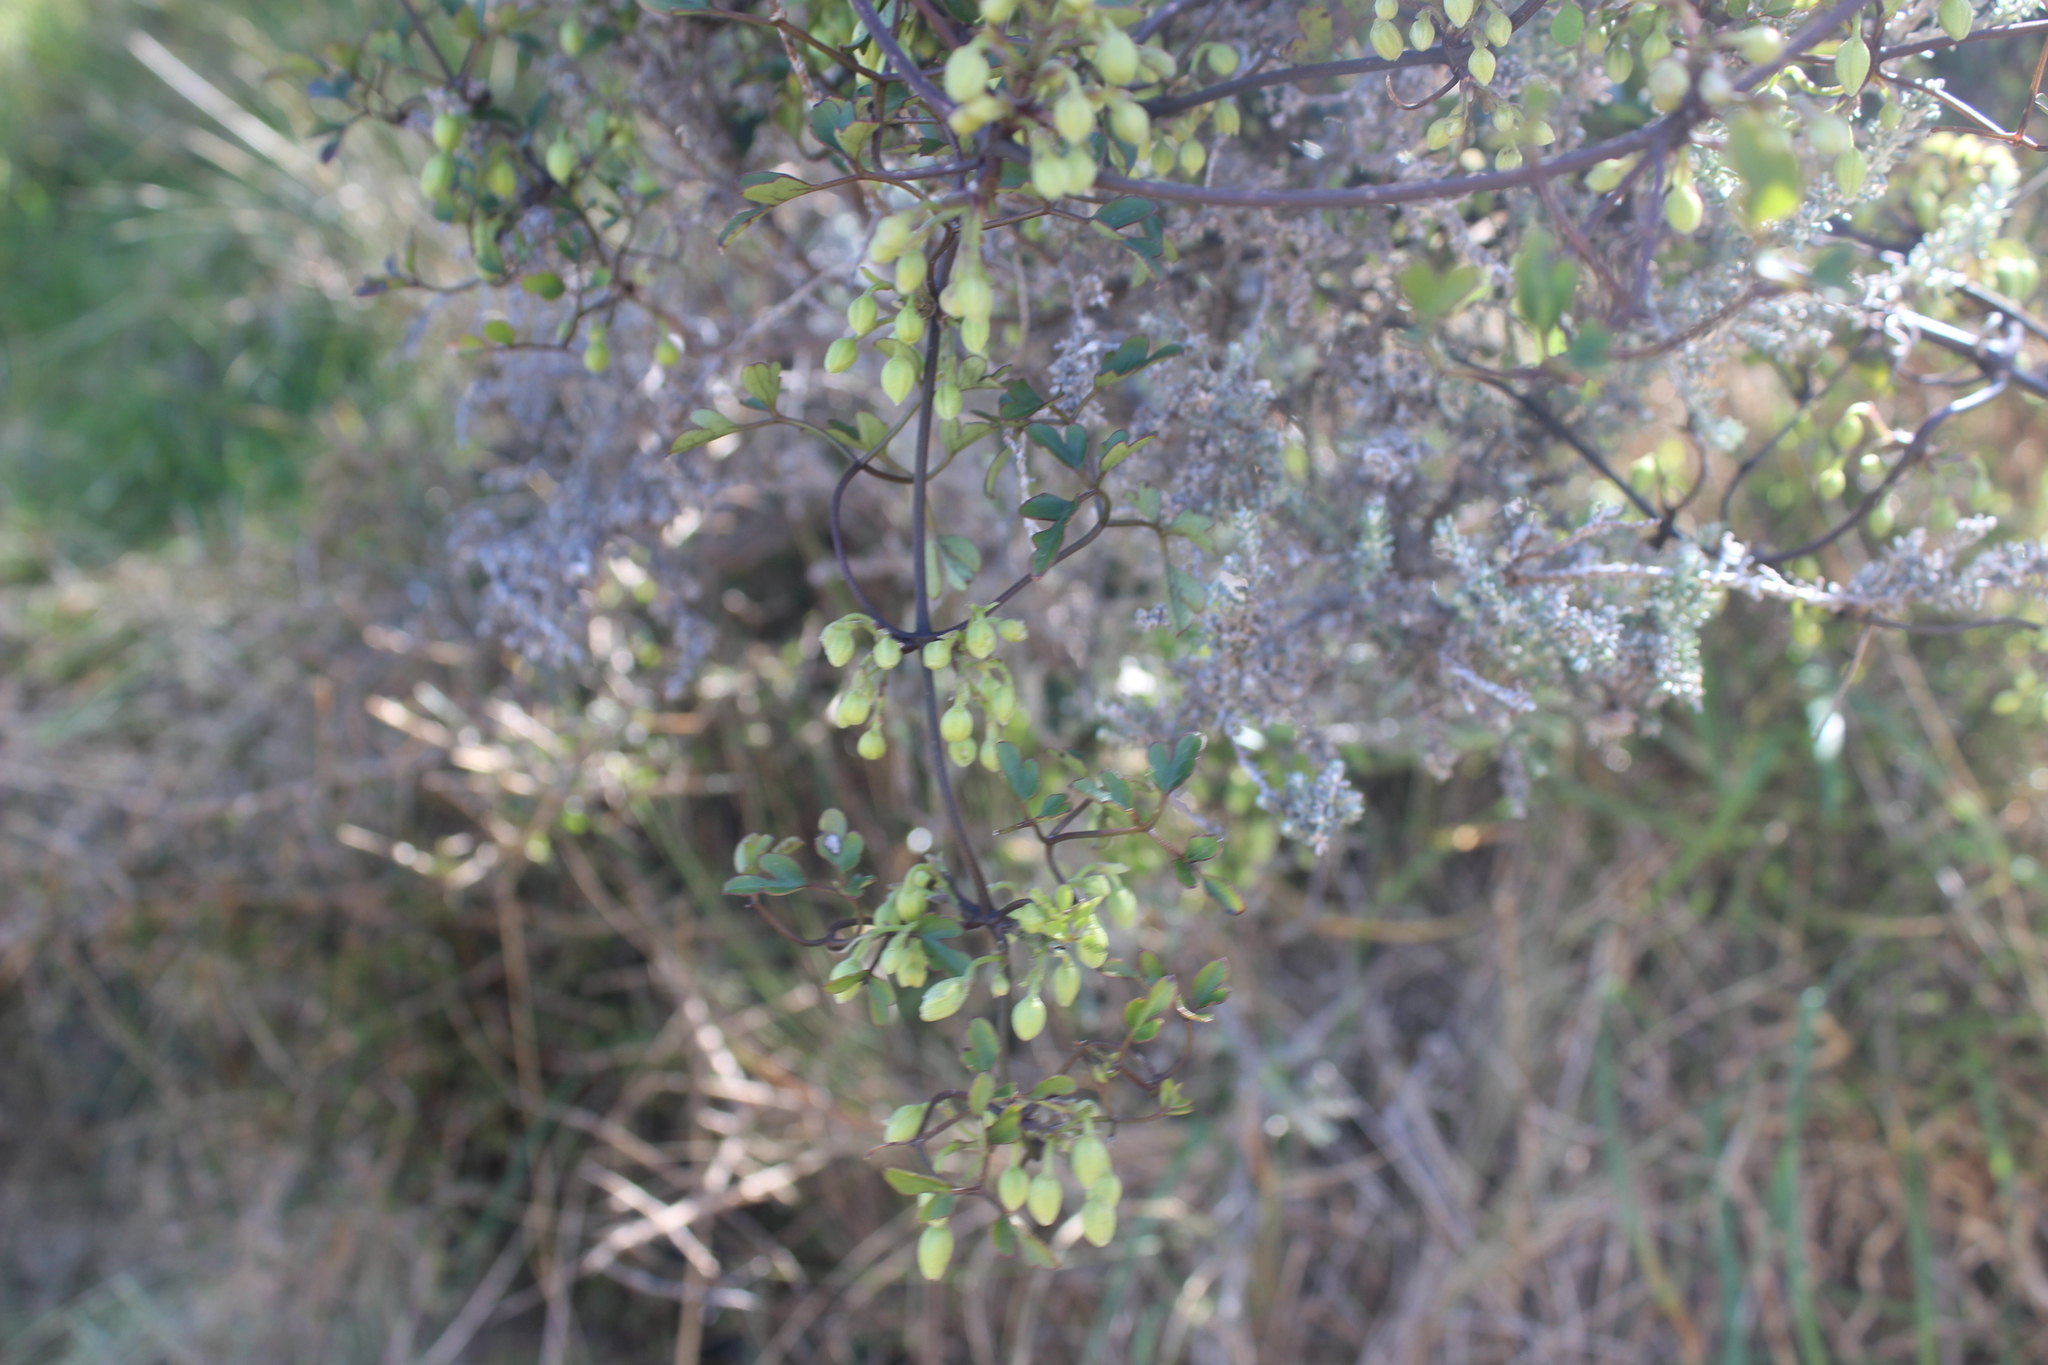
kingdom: Plantae
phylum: Tracheophyta
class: Magnoliopsida
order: Ranunculales
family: Ranunculaceae
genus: Clematis
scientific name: Clematis forsteri
